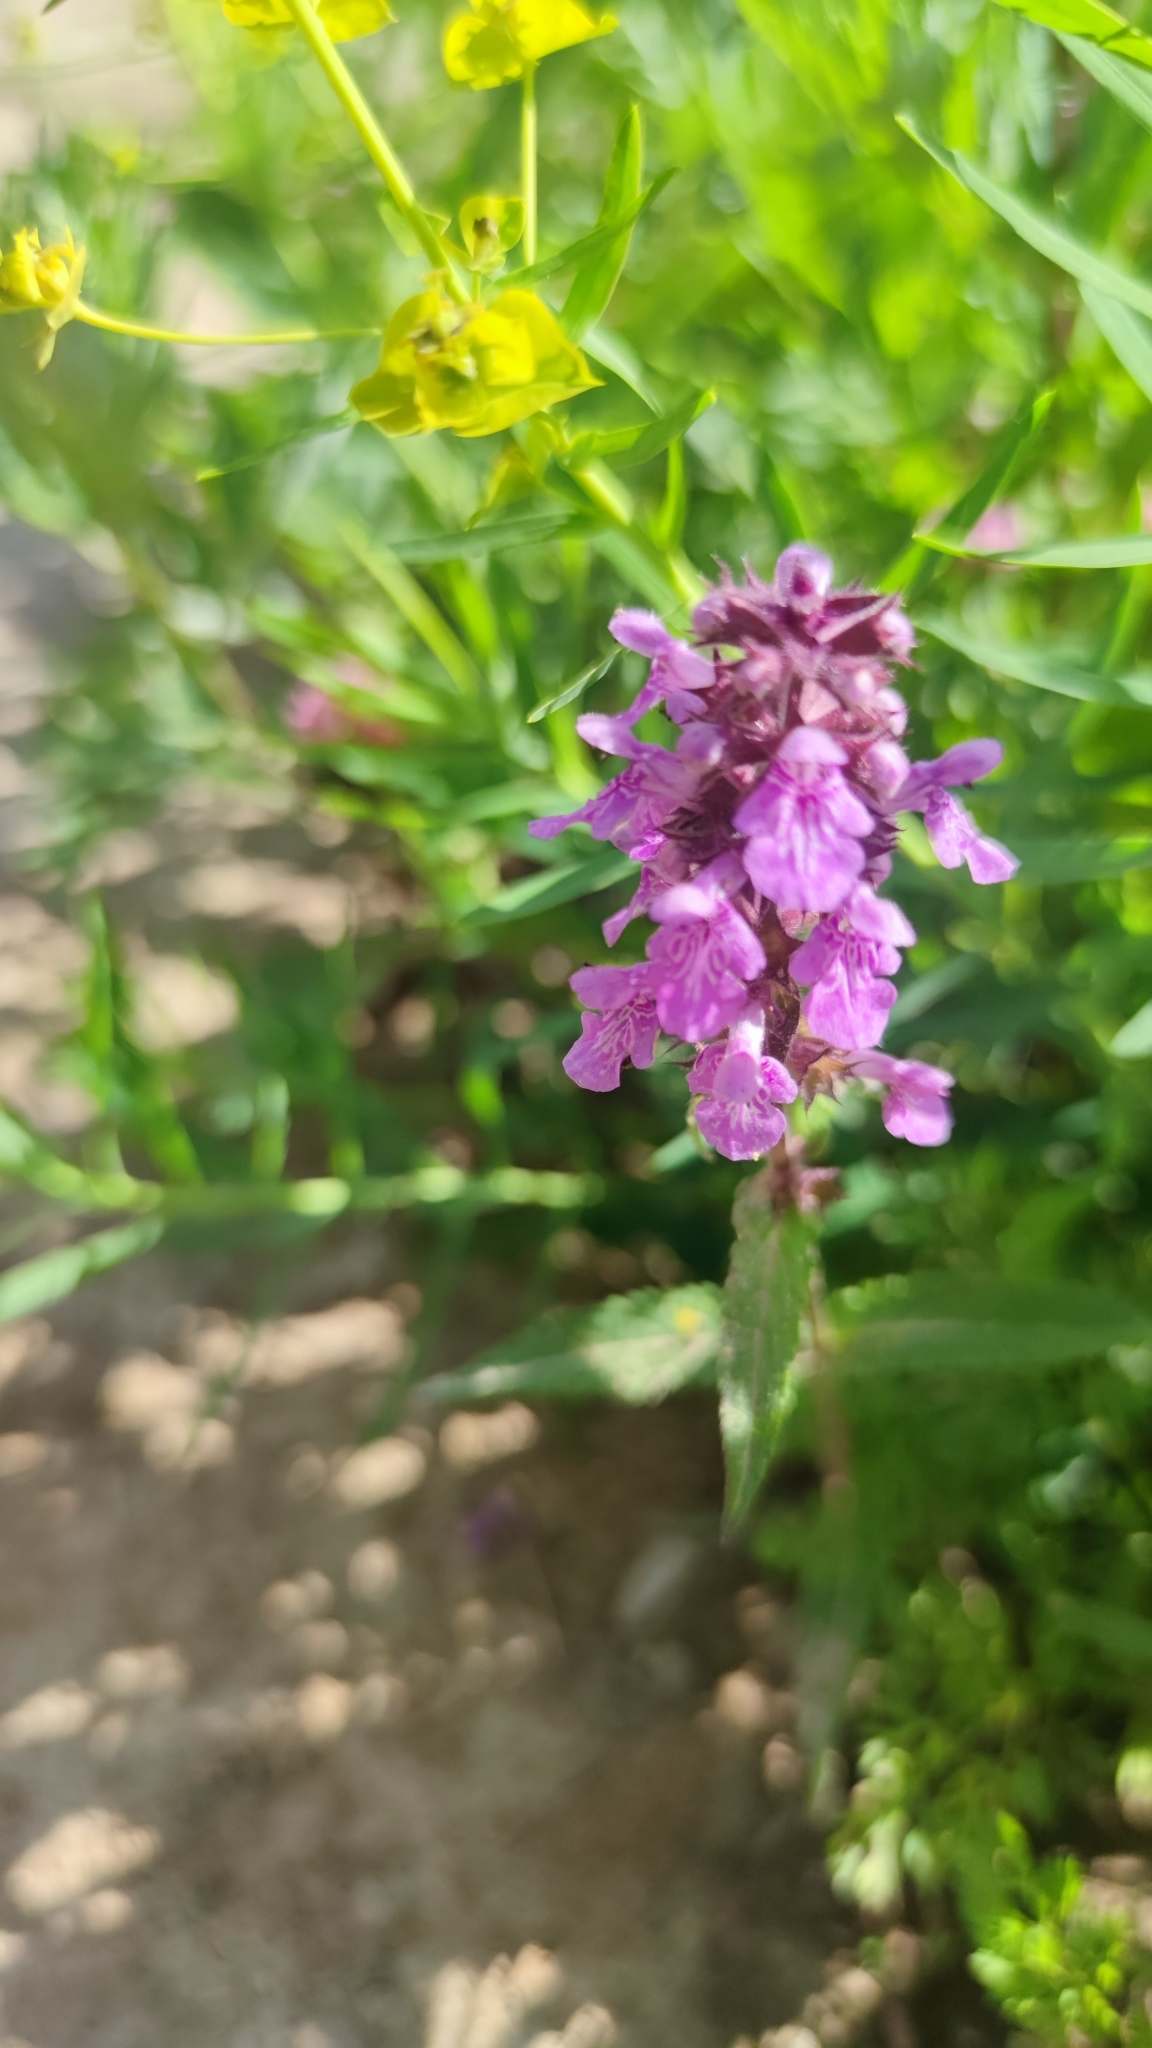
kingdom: Plantae
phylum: Tracheophyta
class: Magnoliopsida
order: Lamiales
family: Lamiaceae
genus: Stachys
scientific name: Stachys palustris
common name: Marsh woundwort
